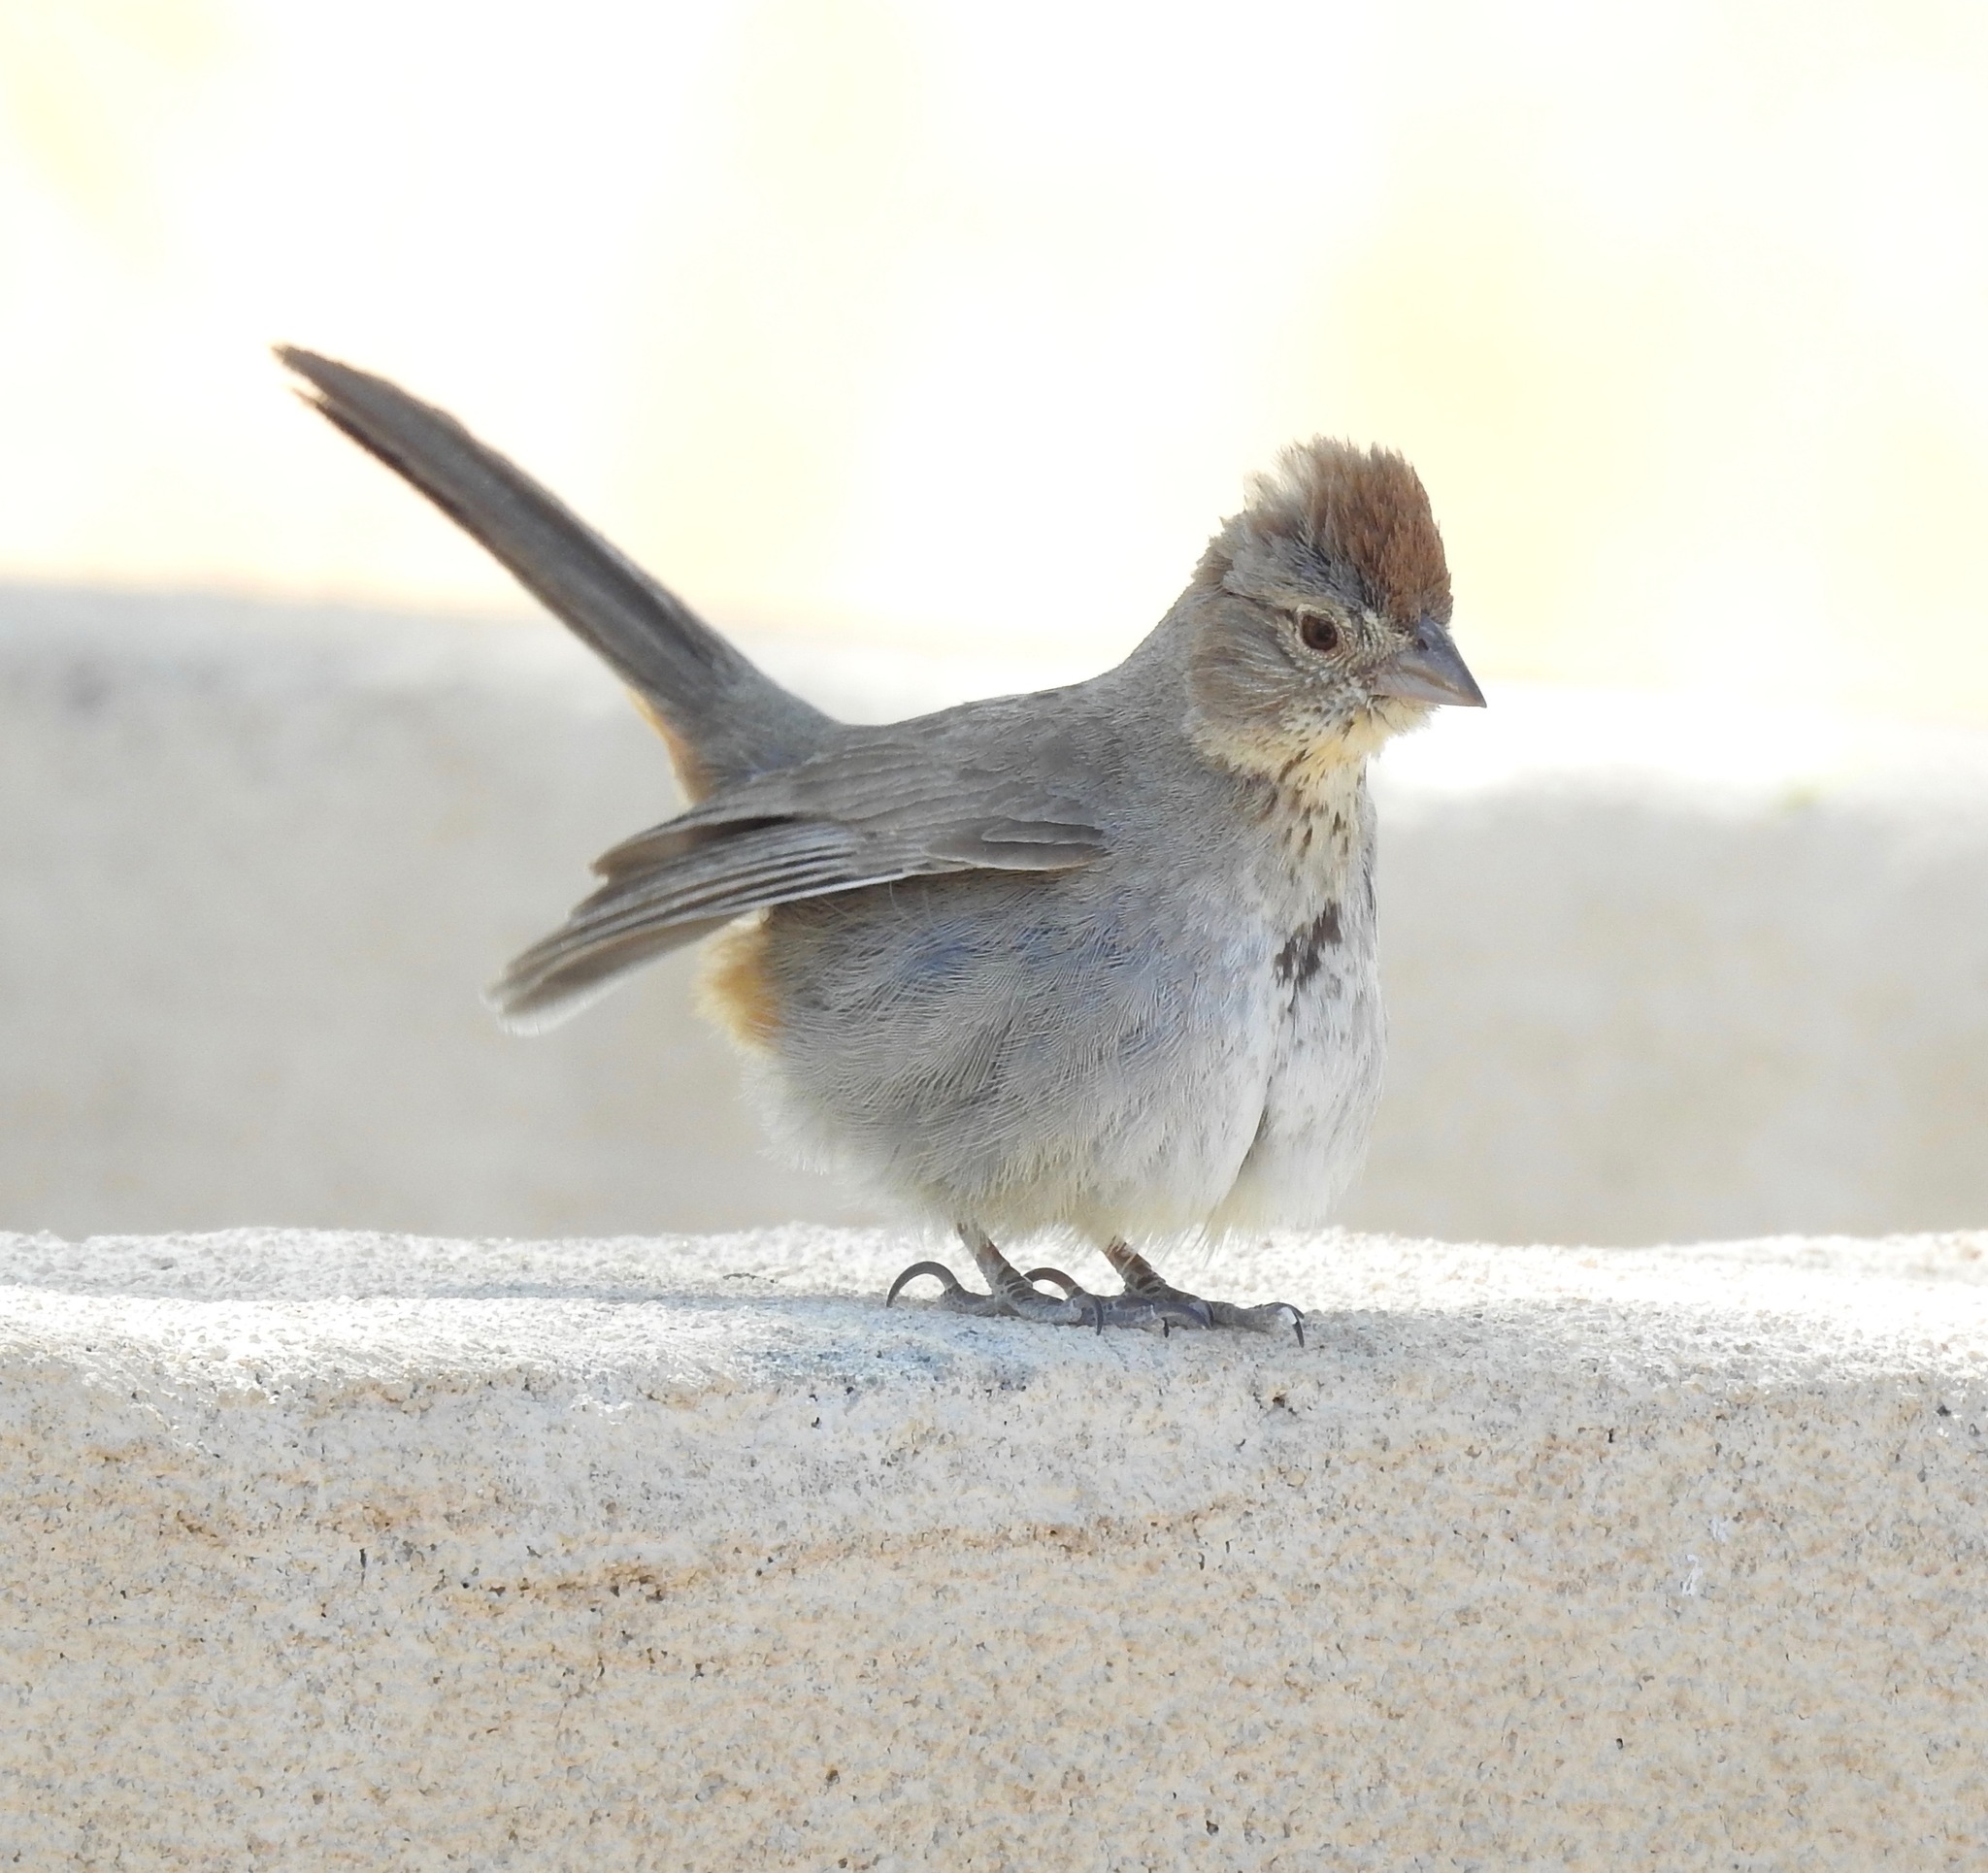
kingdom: Animalia
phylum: Chordata
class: Aves
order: Passeriformes
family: Passerellidae
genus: Melozone
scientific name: Melozone fusca
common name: Canyon towhee
